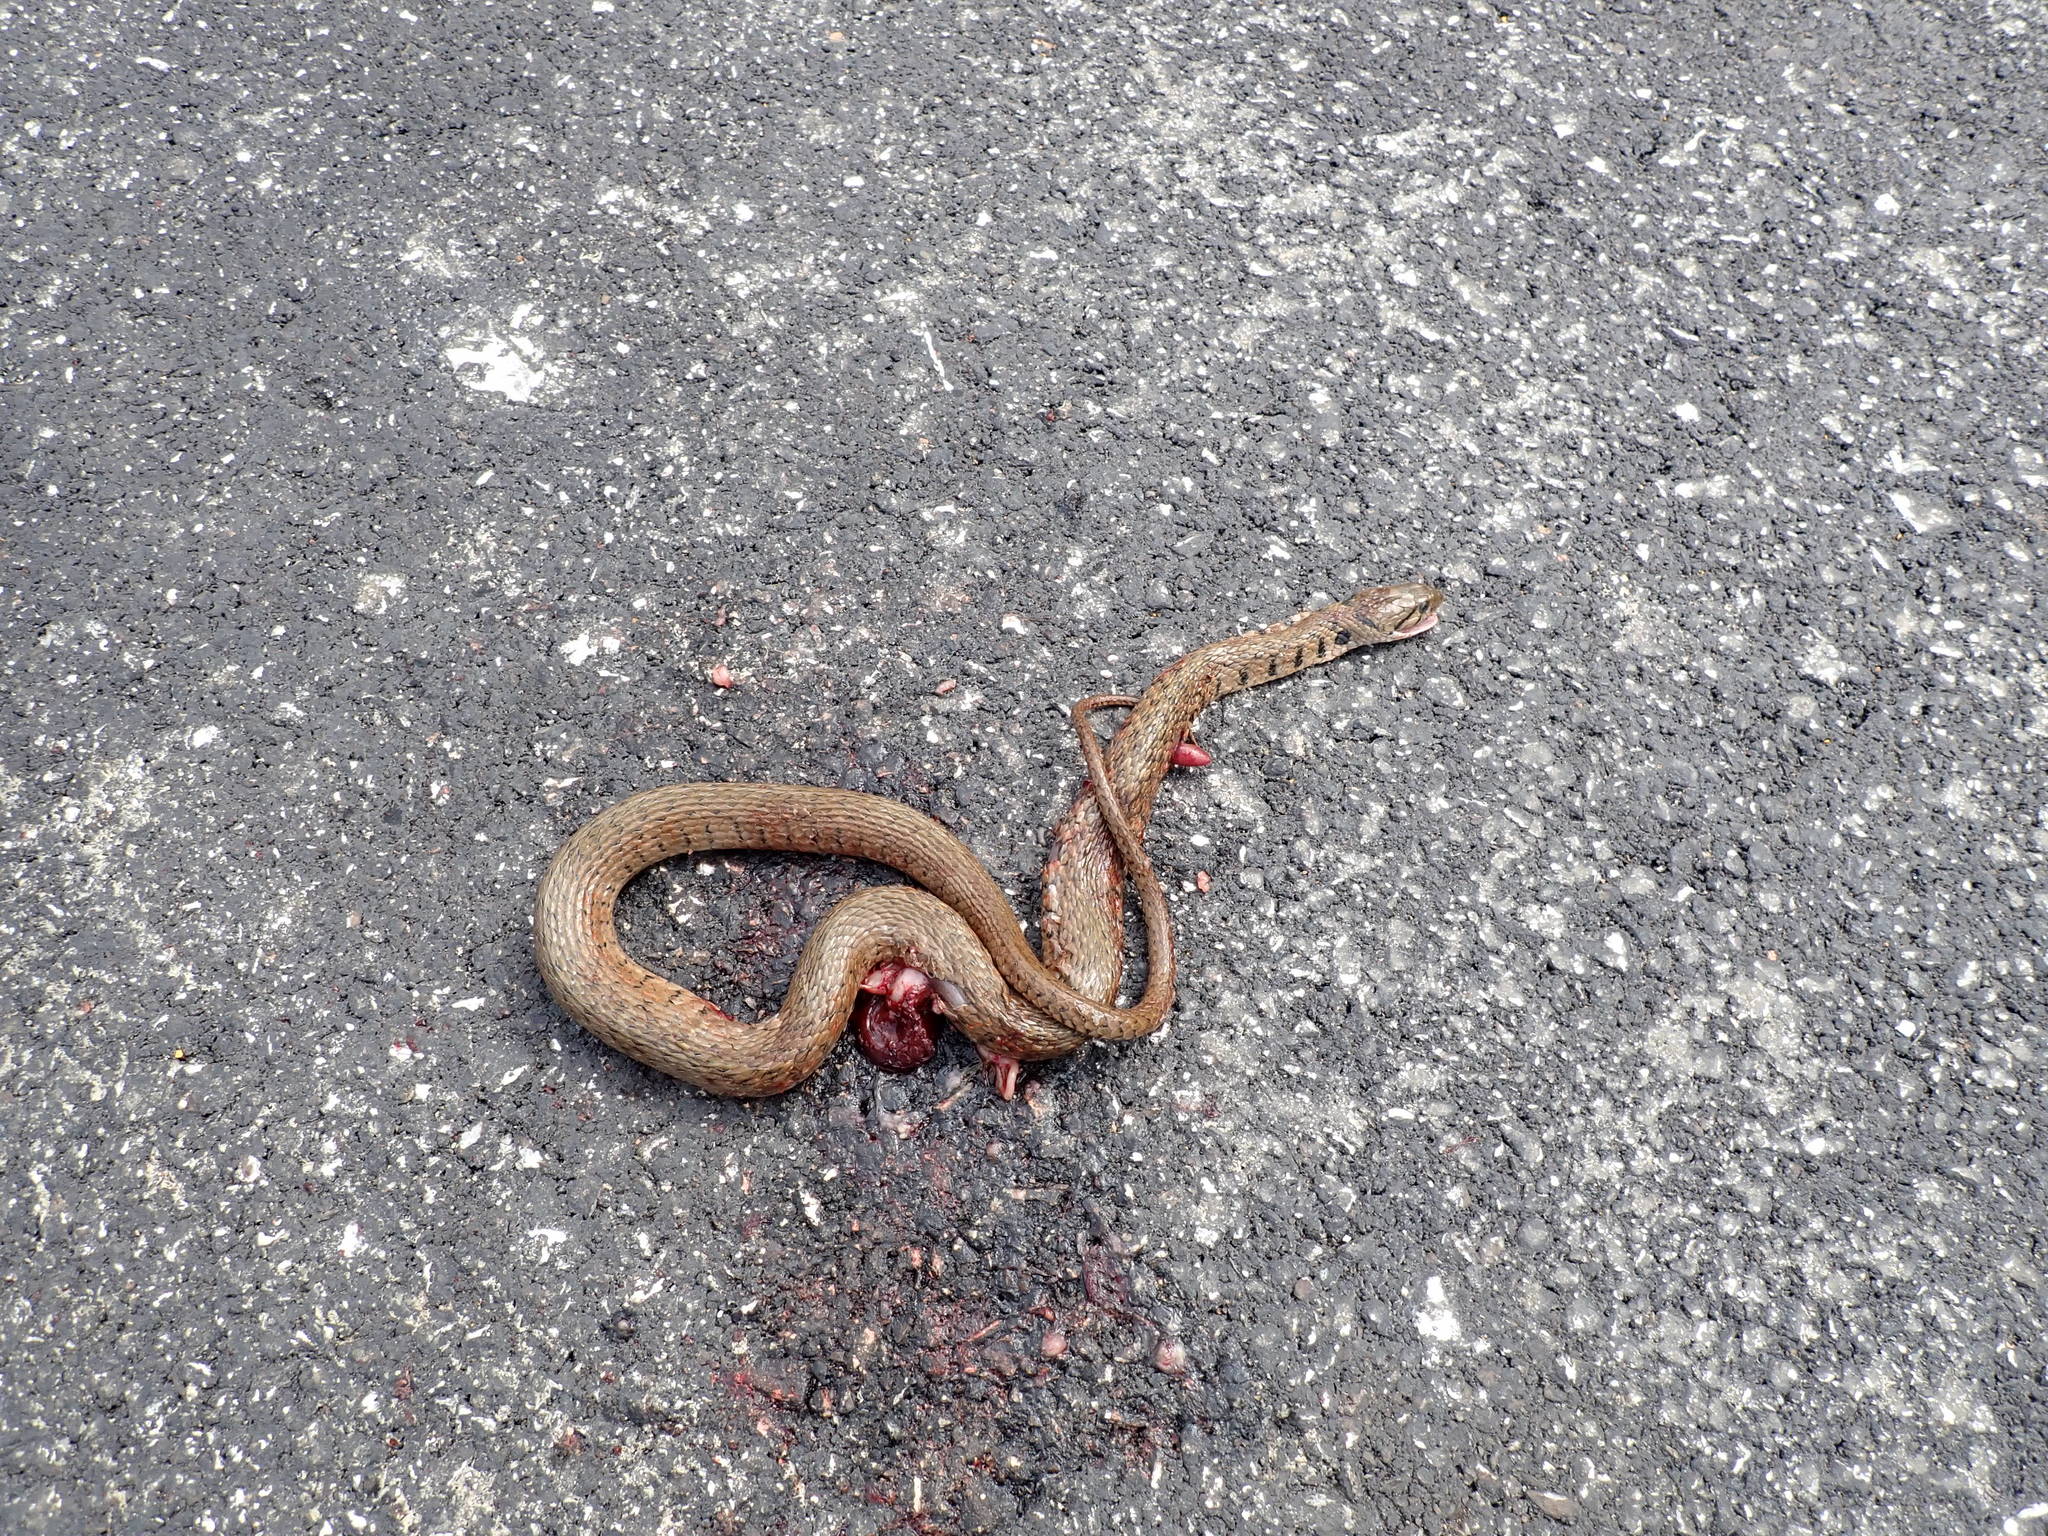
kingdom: Animalia
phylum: Chordata
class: Squamata
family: Colubridae
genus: Fowlea
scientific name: Fowlea flavipunctatus
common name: Yellow-spotted keelback
